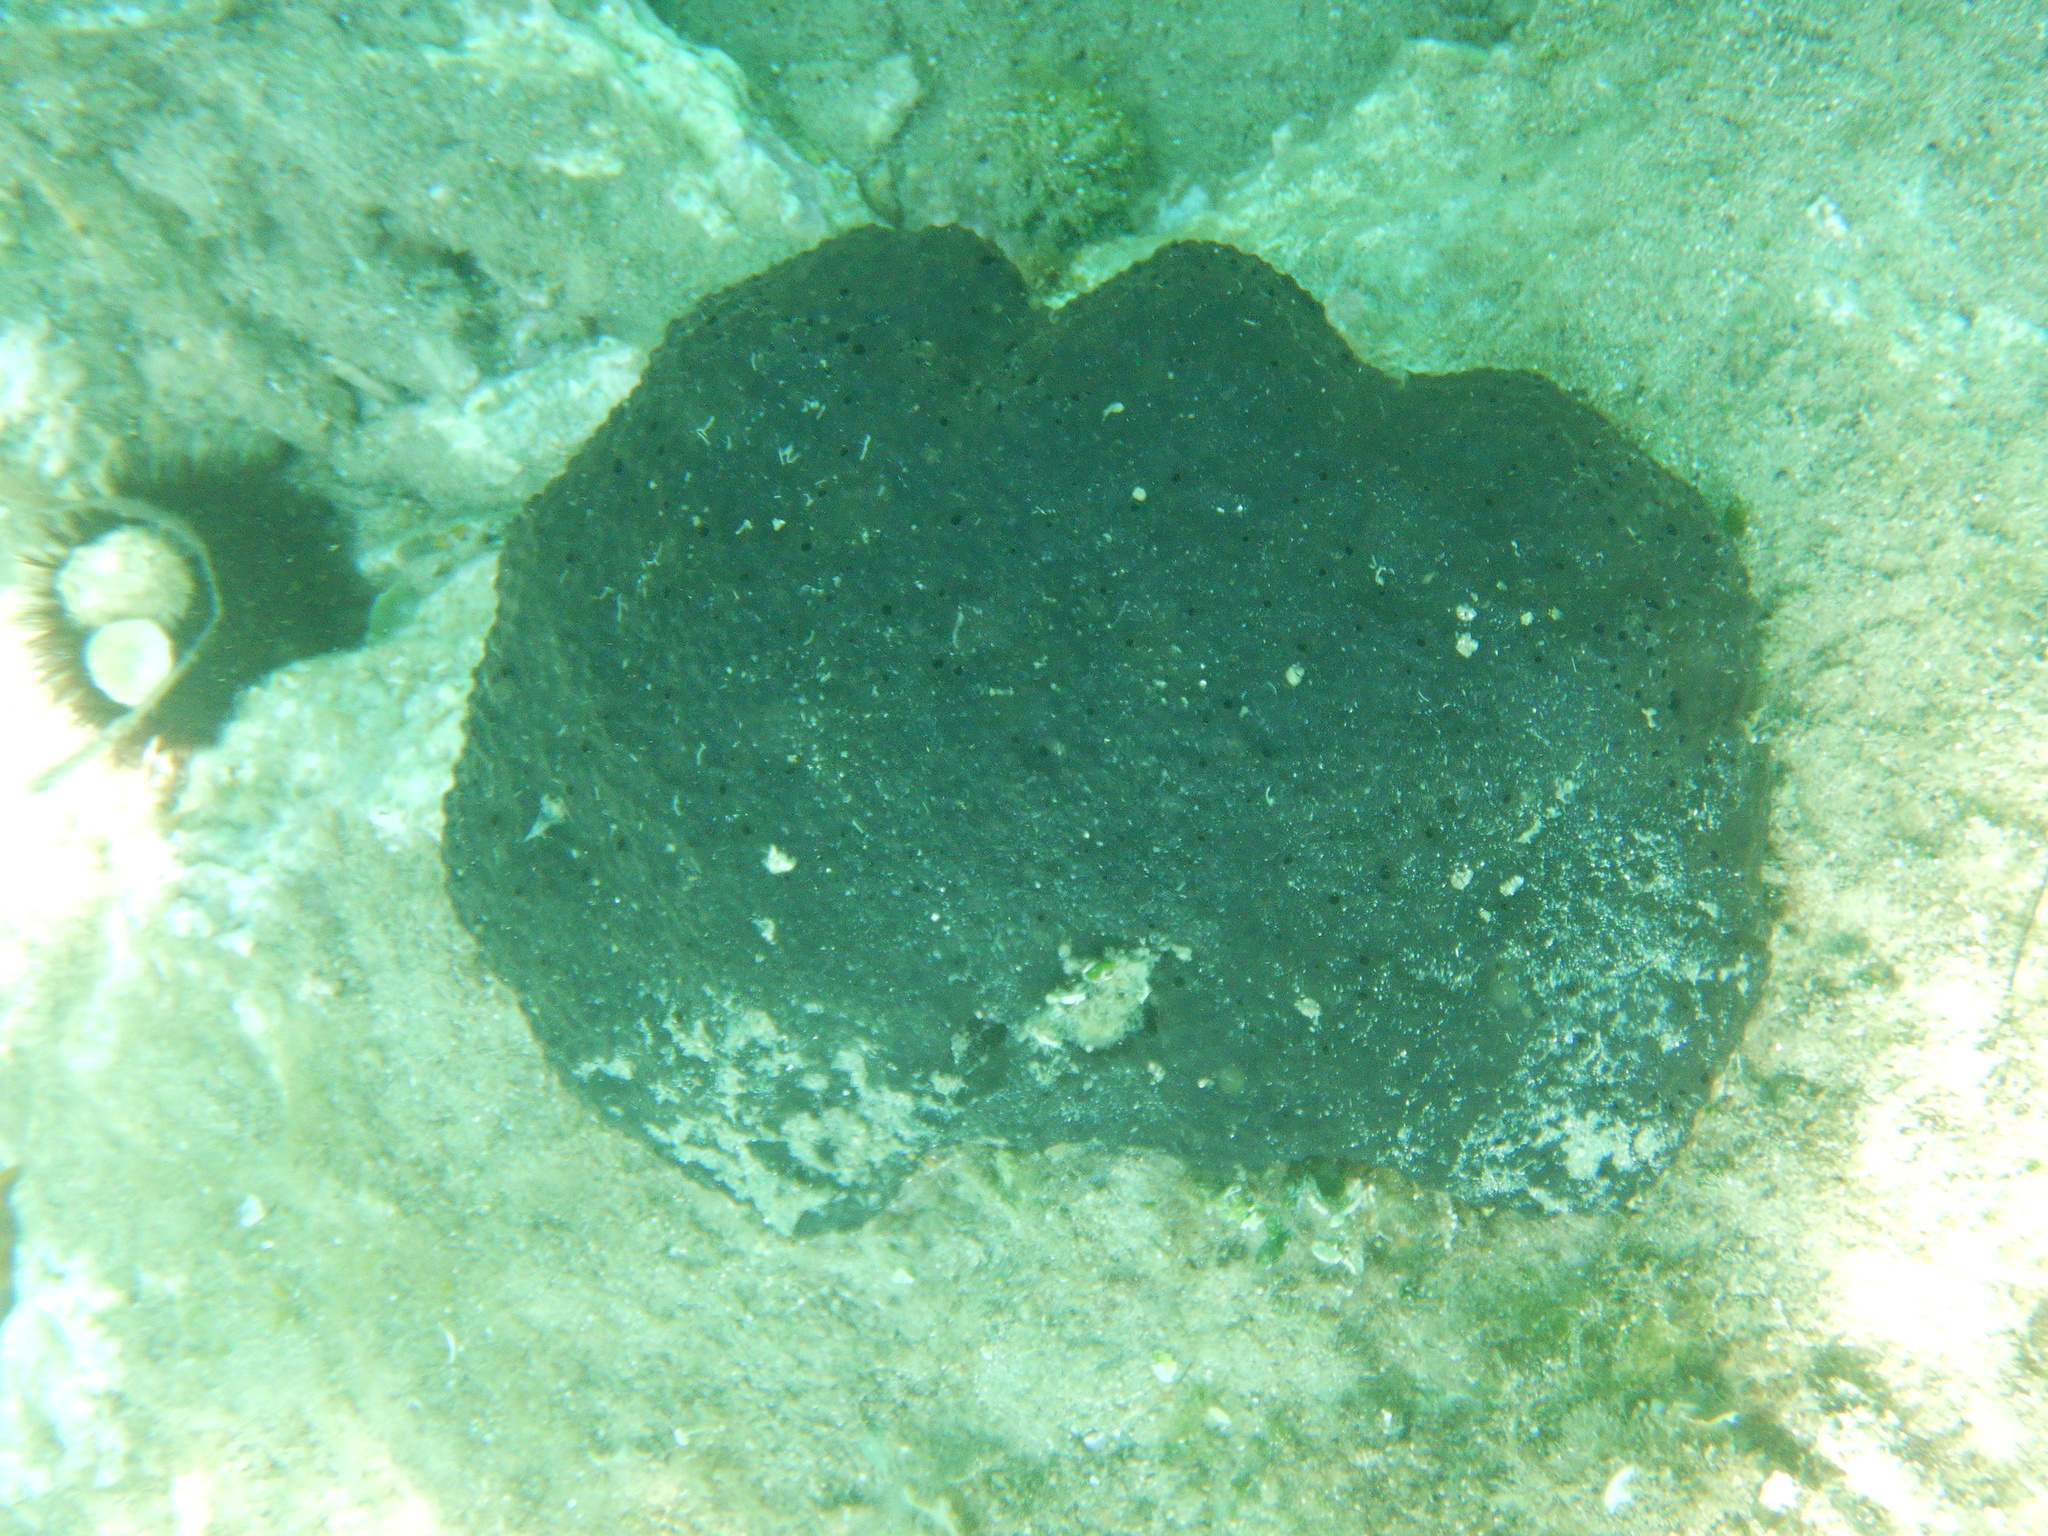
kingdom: Animalia
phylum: Porifera
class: Demospongiae
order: Dictyoceratida
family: Irciniidae
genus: Sarcotragus
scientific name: Sarcotragus spinosulus
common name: Black leather sponge
